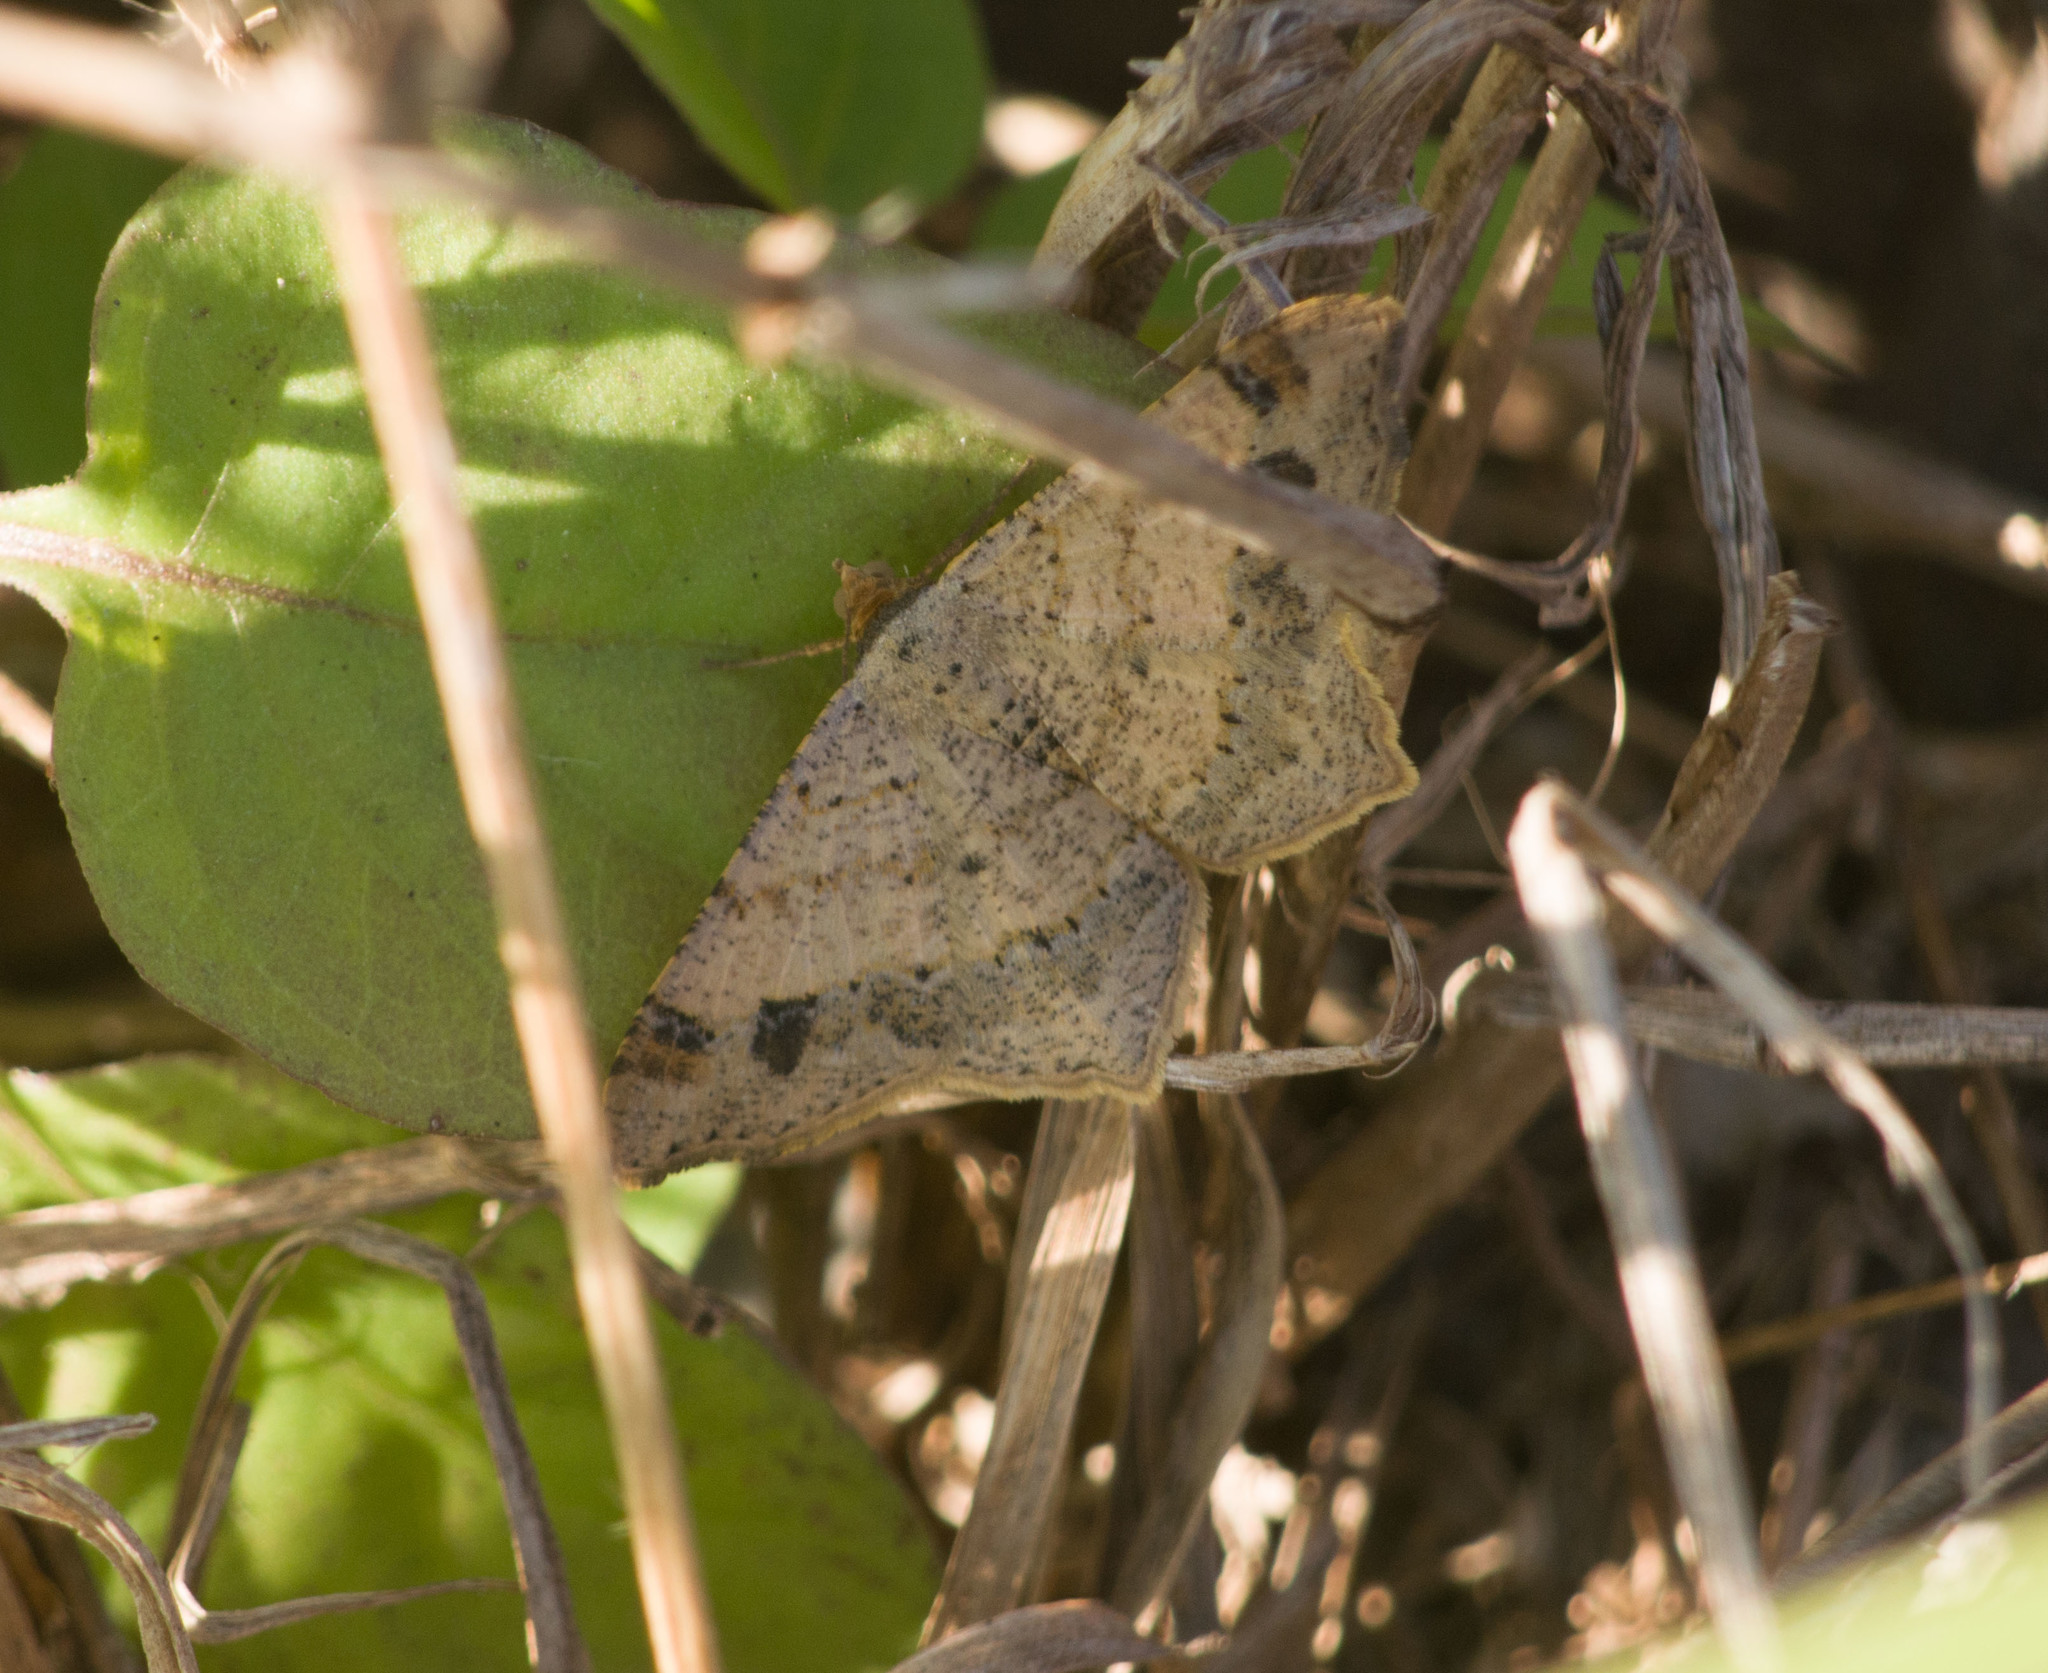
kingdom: Animalia
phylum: Arthropoda
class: Insecta
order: Lepidoptera
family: Geometridae
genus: Macaria
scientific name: Macaria abydata
